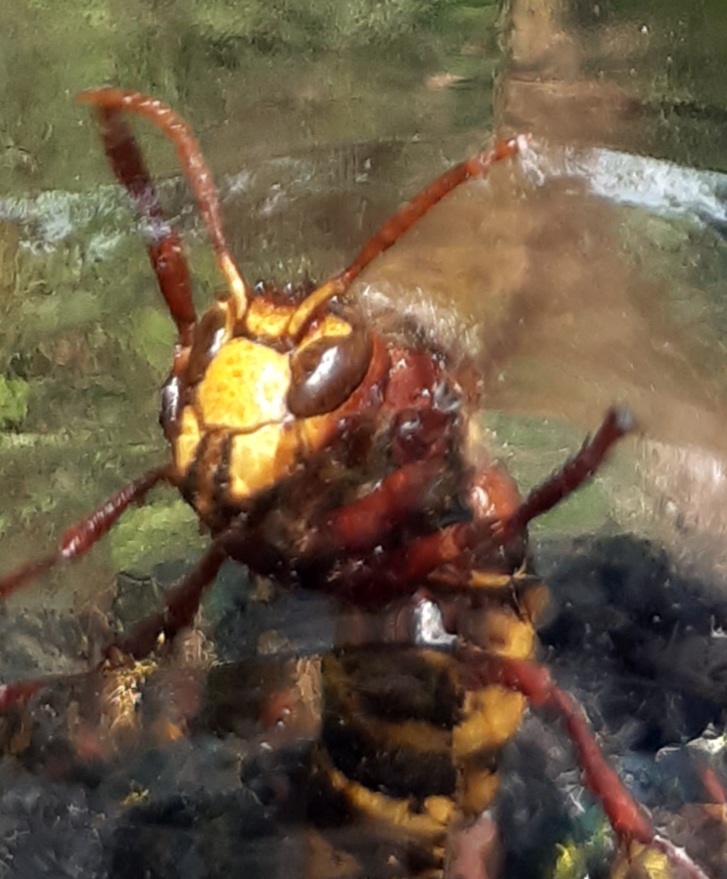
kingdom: Animalia
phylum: Arthropoda
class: Insecta
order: Hymenoptera
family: Vespidae
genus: Vespa
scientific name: Vespa crabro
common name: Hornet
